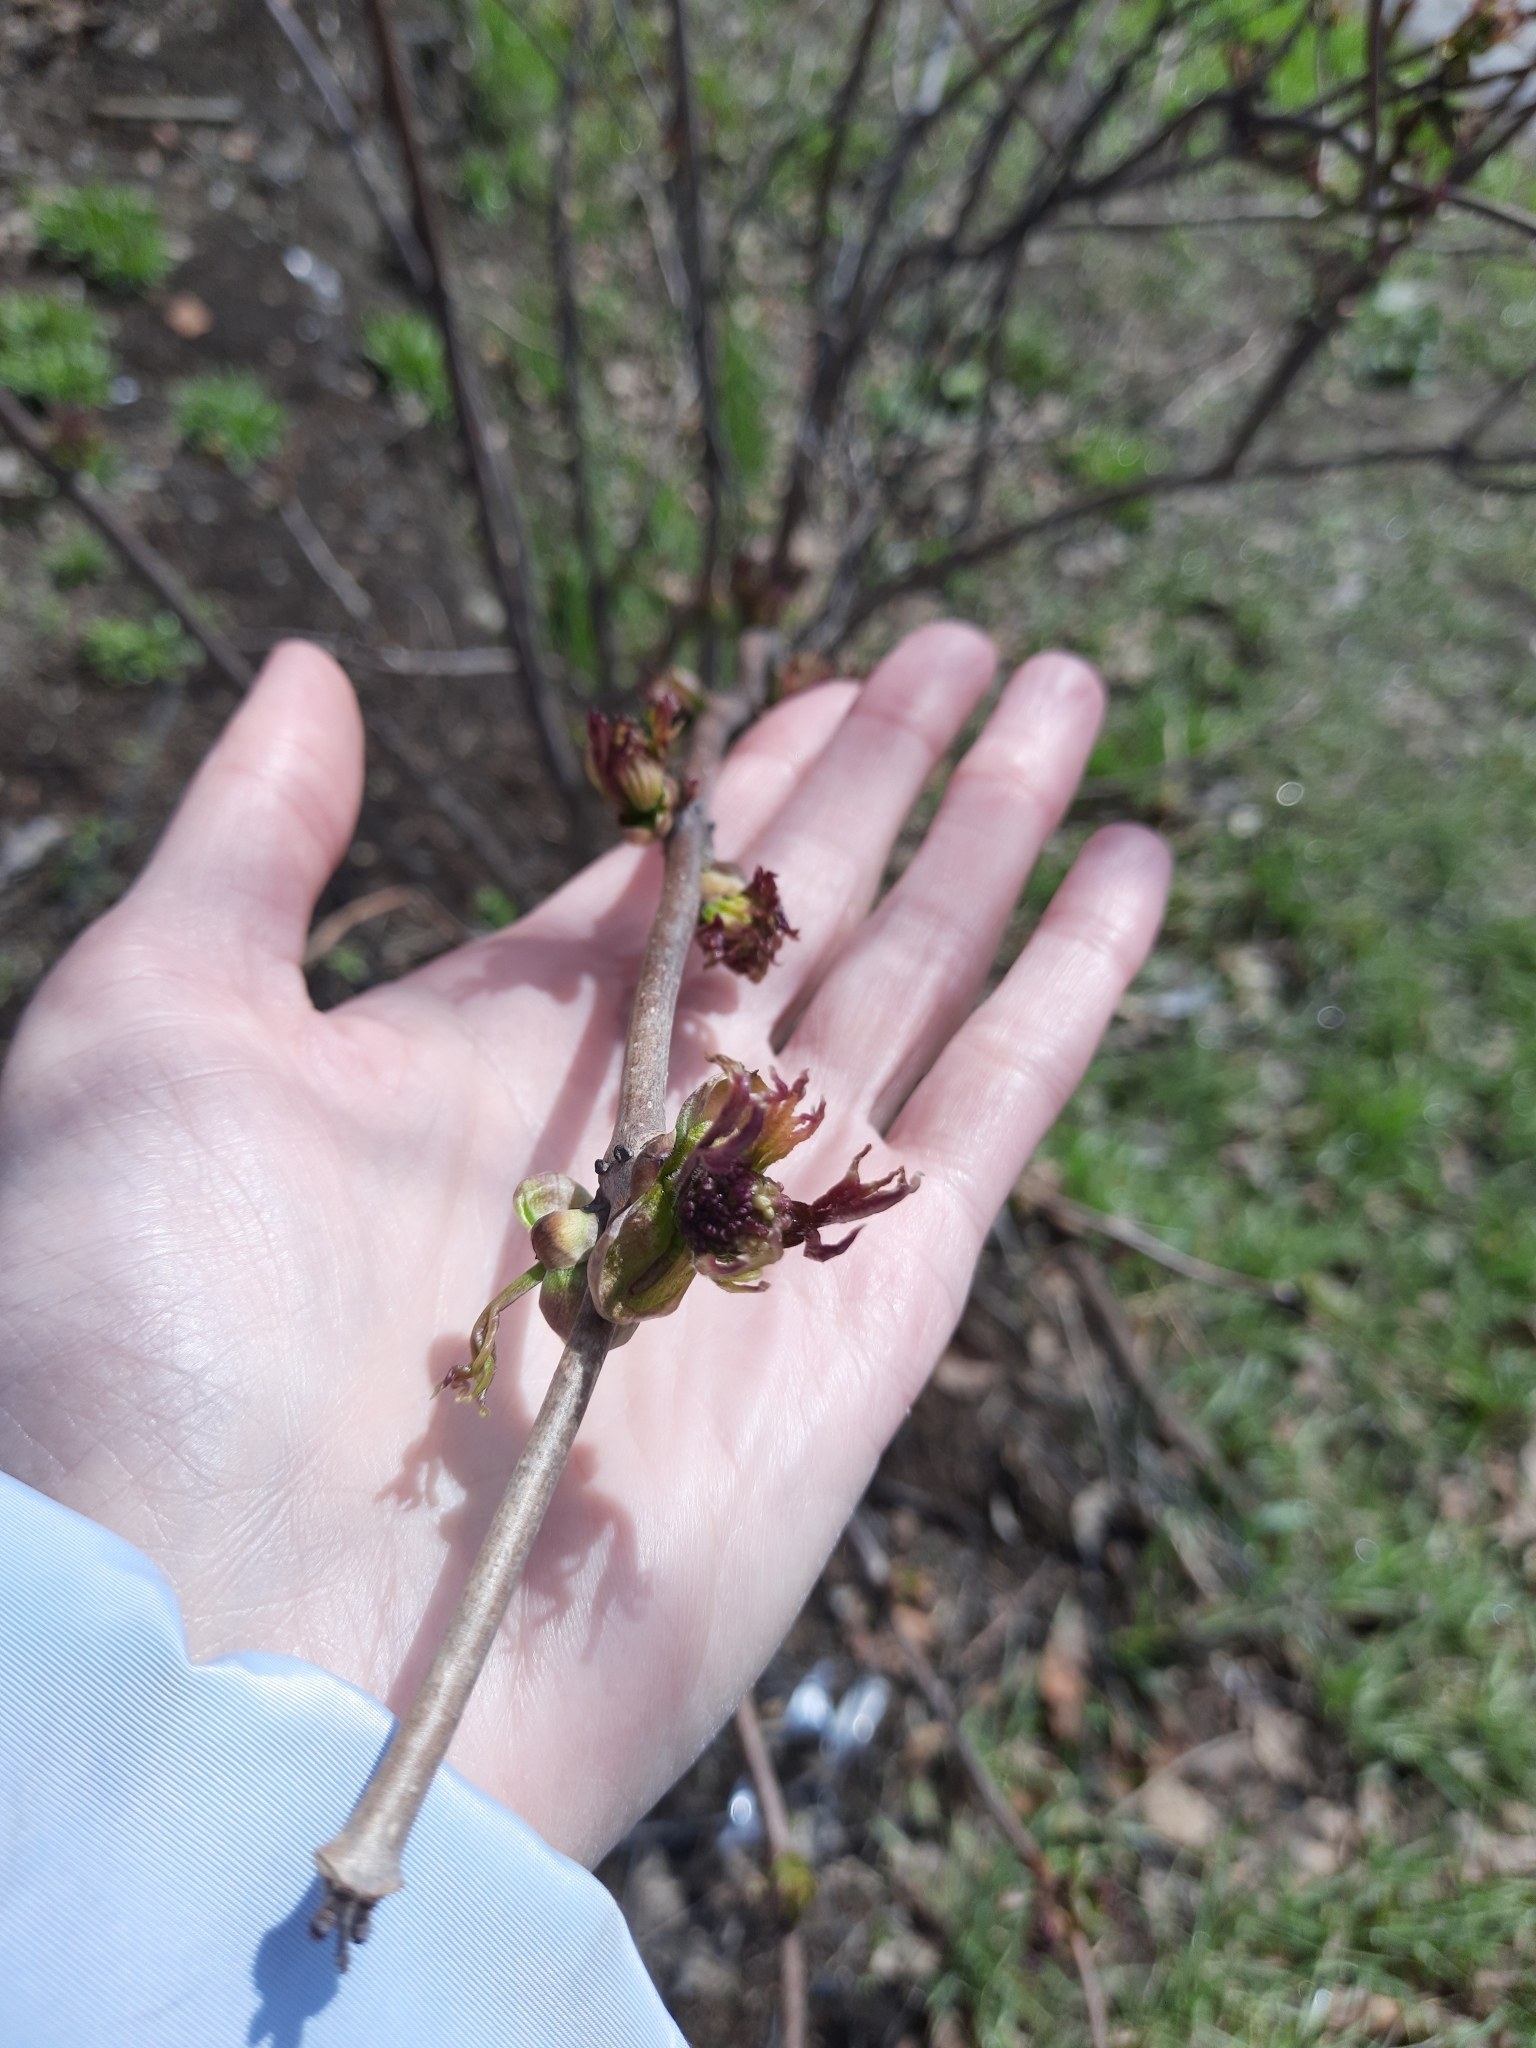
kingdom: Plantae
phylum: Tracheophyta
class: Magnoliopsida
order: Dipsacales
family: Viburnaceae
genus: Sambucus
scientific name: Sambucus sibirica
